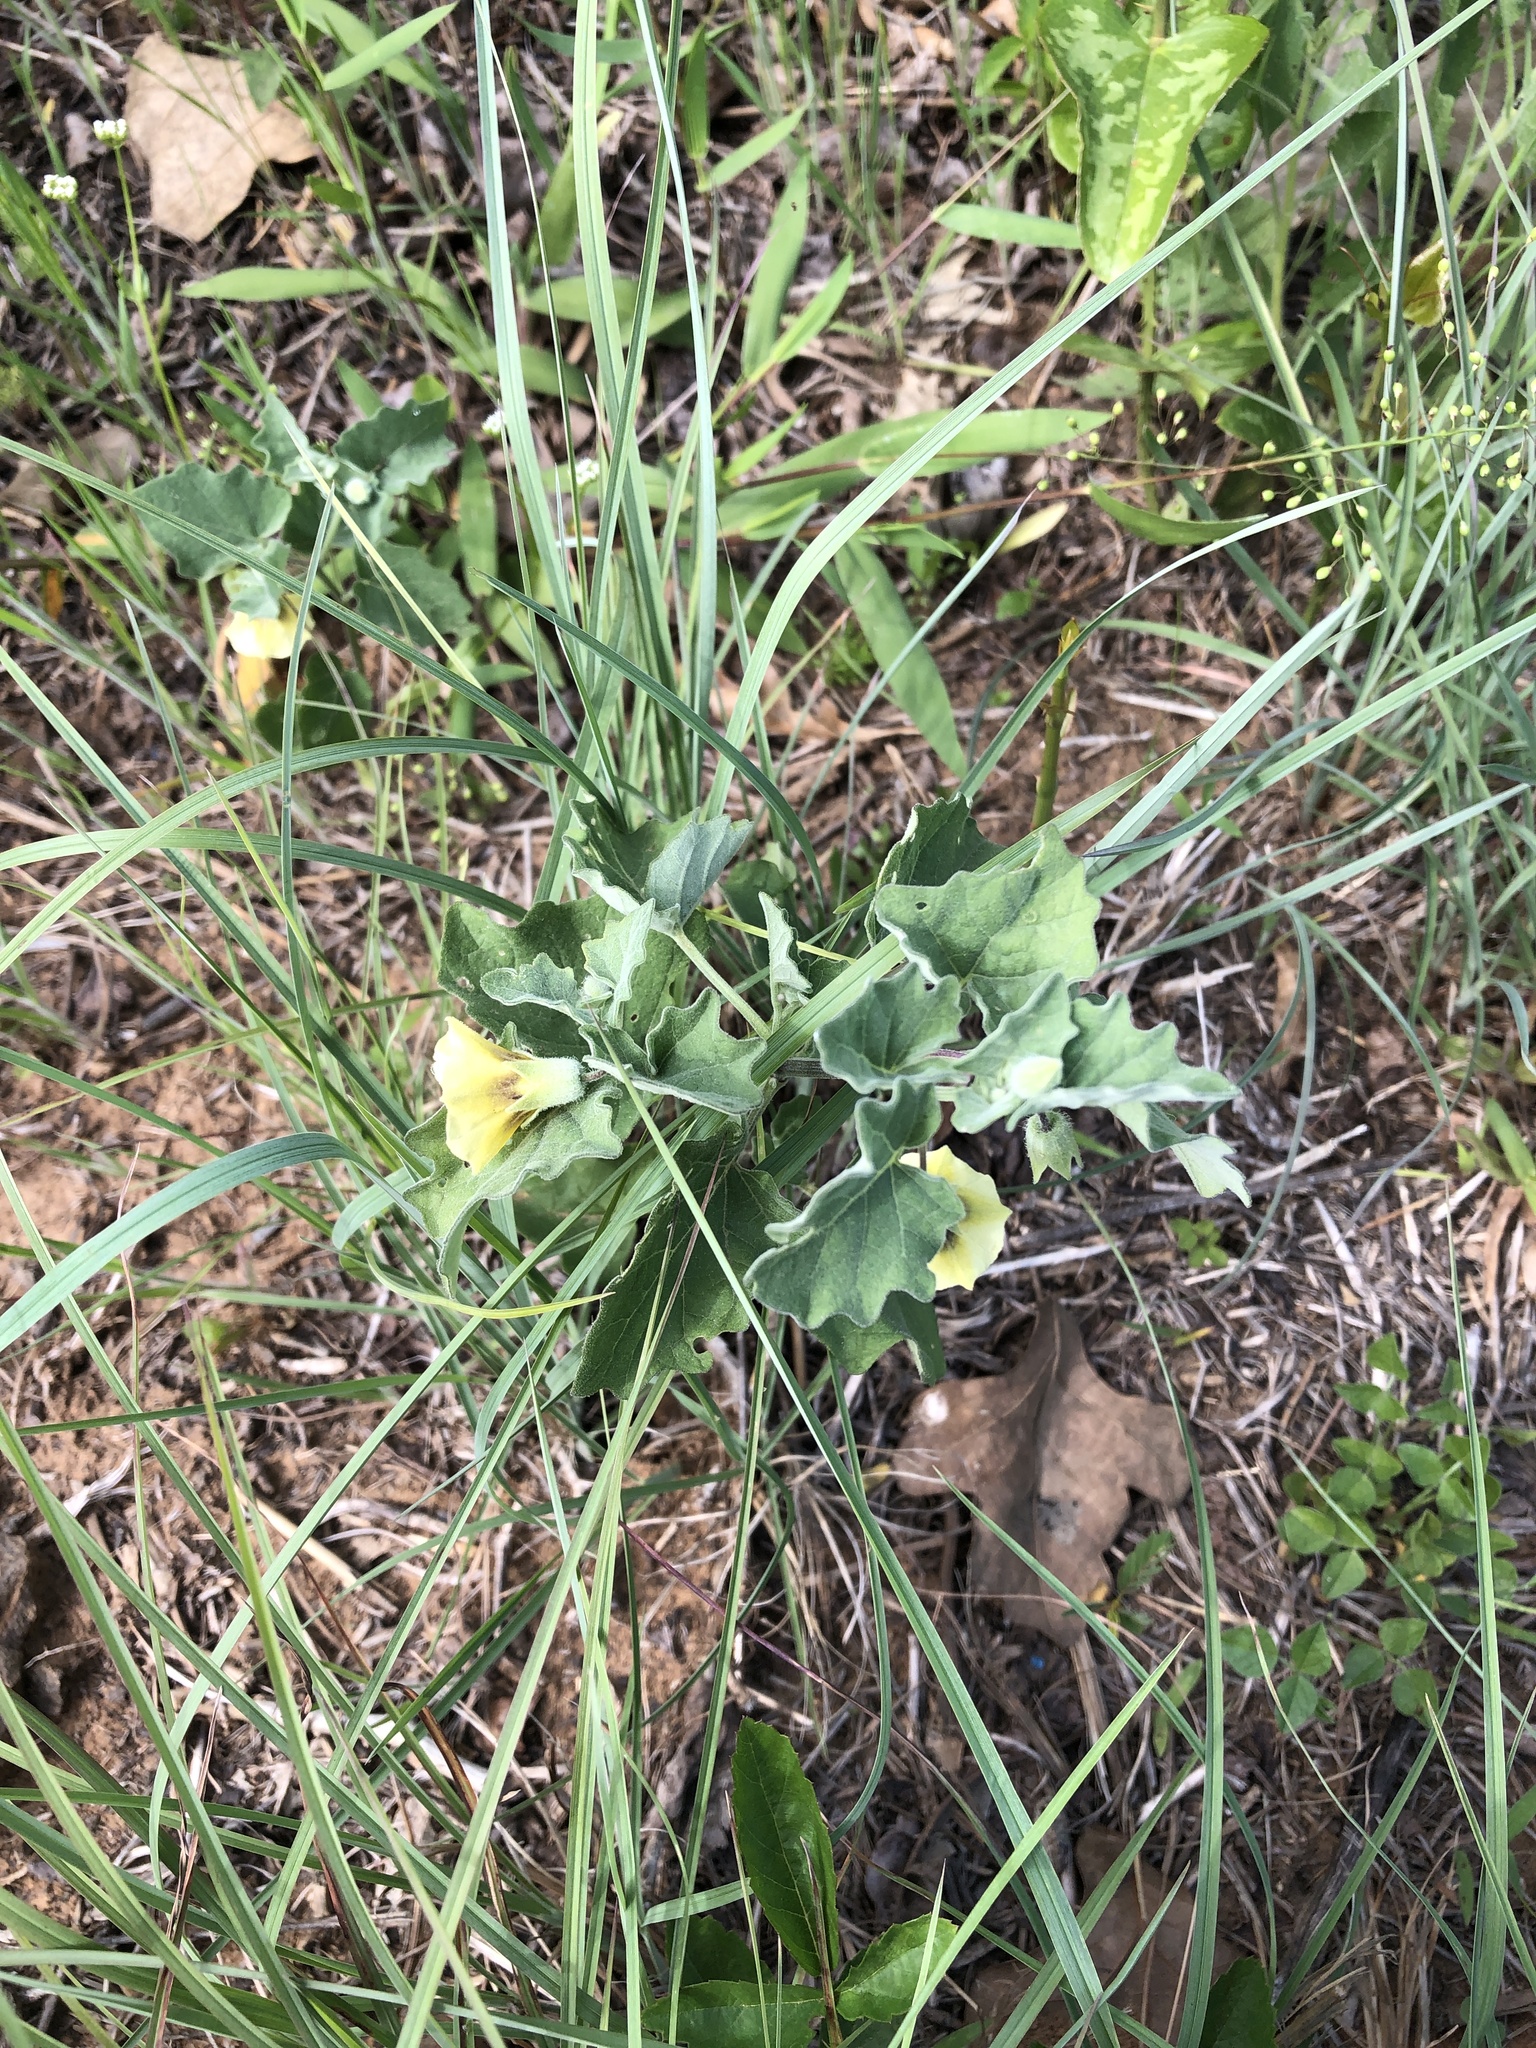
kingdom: Plantae
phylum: Tracheophyta
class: Magnoliopsida
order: Solanales
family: Solanaceae
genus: Physalis
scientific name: Physalis cinerascens
